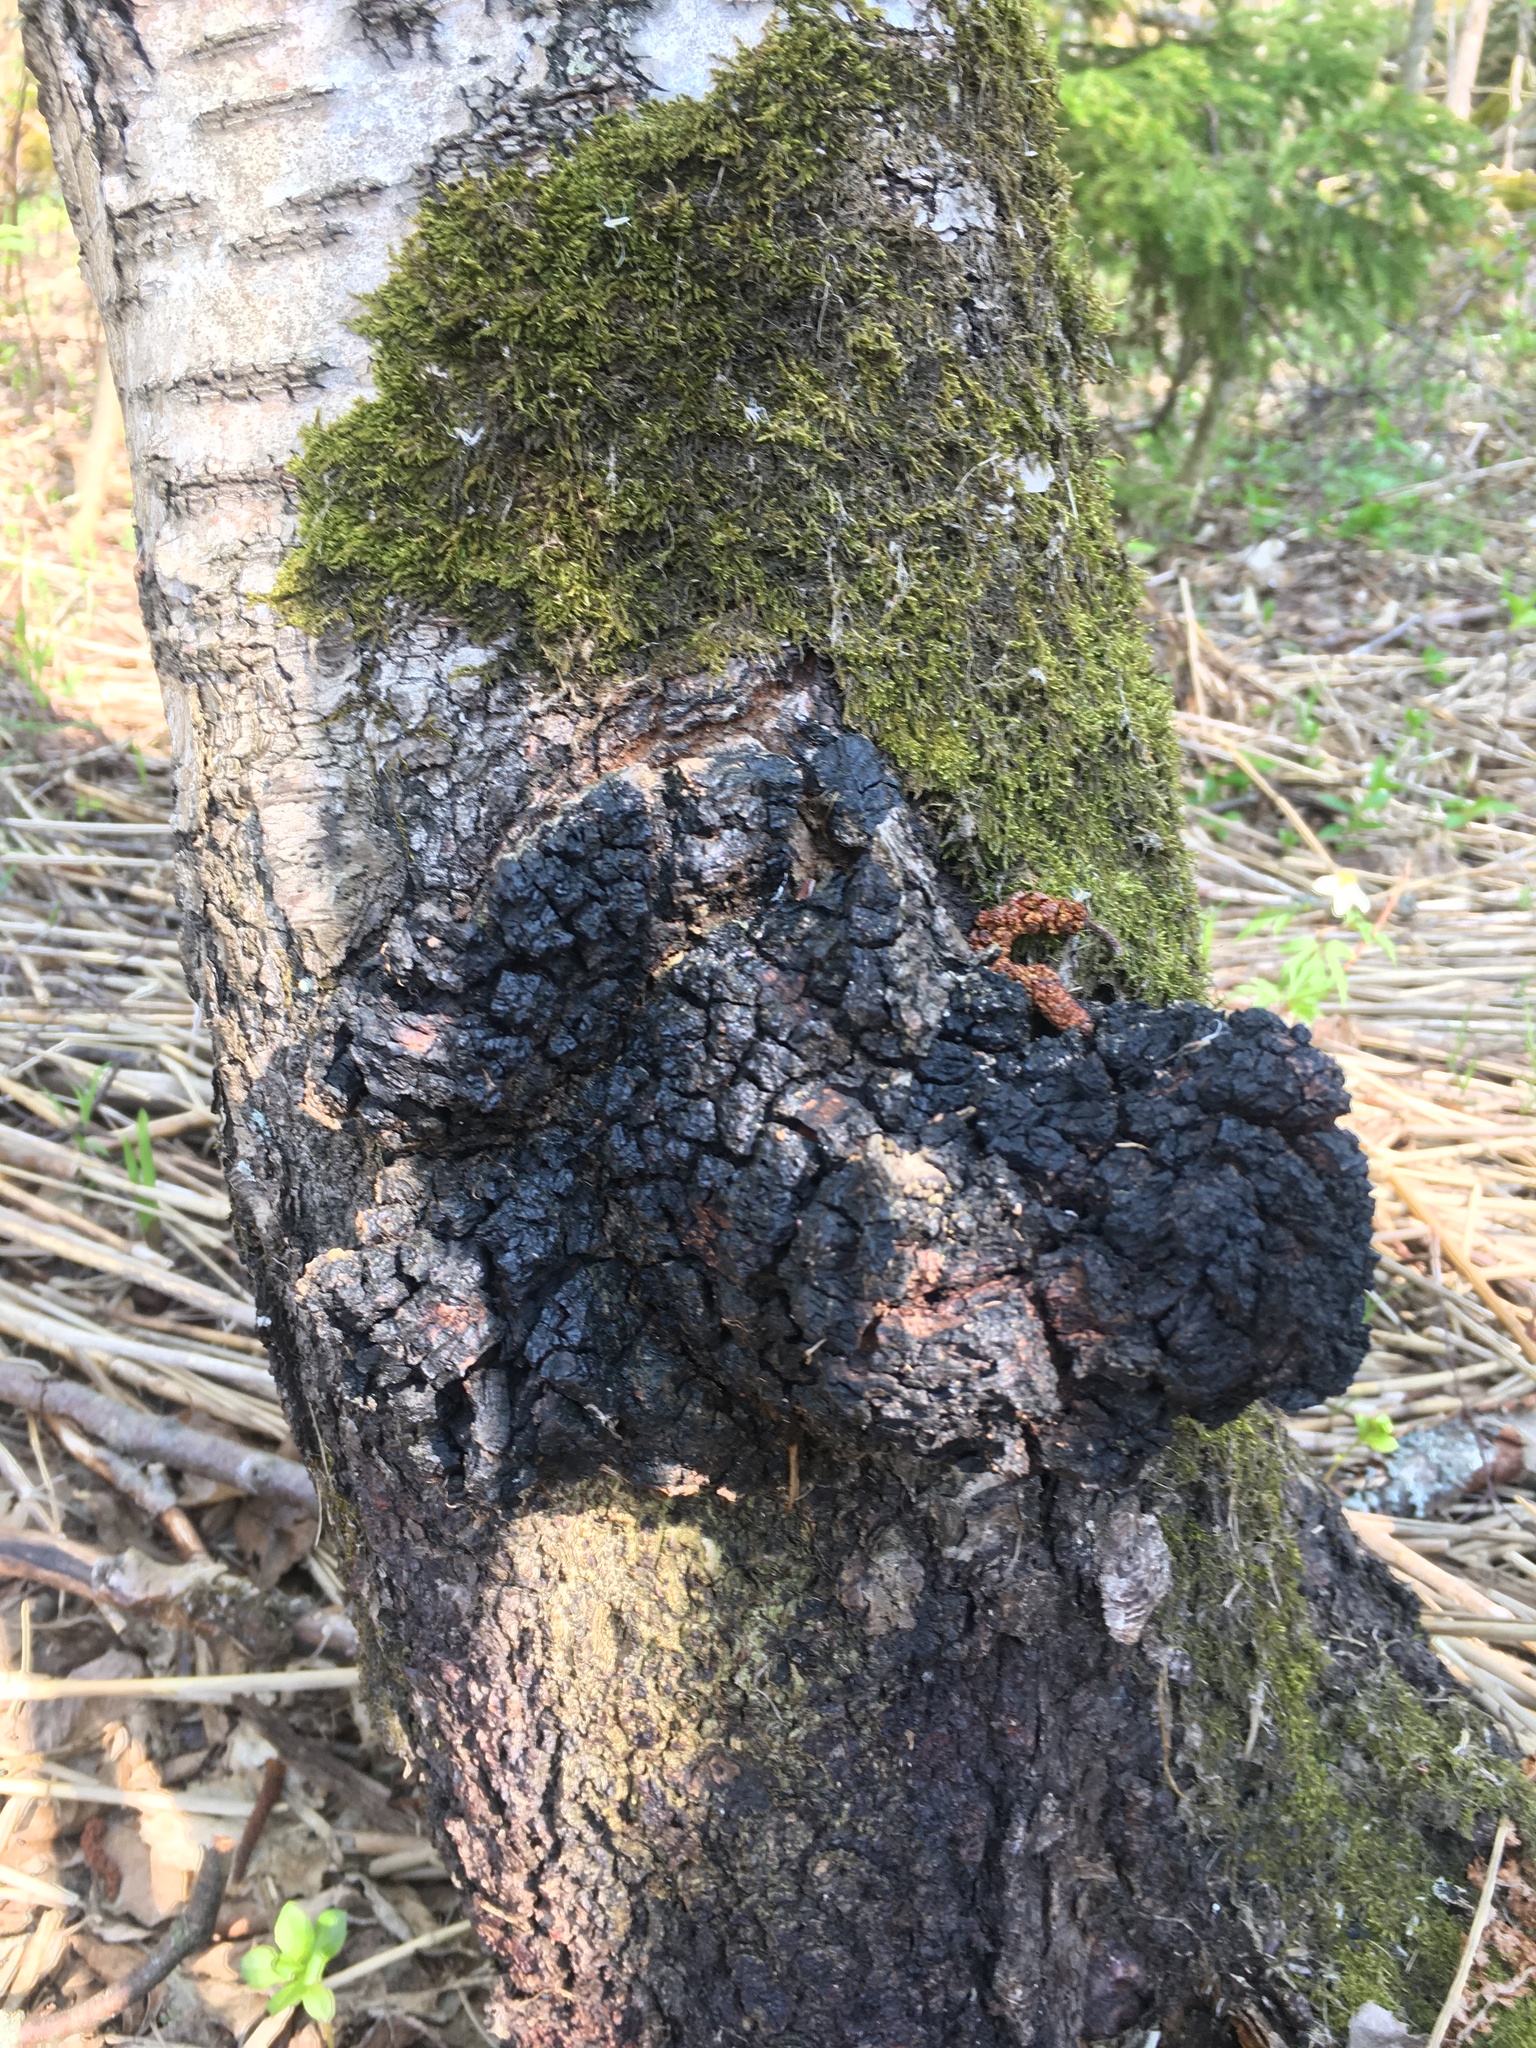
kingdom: Fungi
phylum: Basidiomycota
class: Agaricomycetes
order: Hymenochaetales
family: Hymenochaetaceae
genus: Inonotus
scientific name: Inonotus obliquus
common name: Chaga
